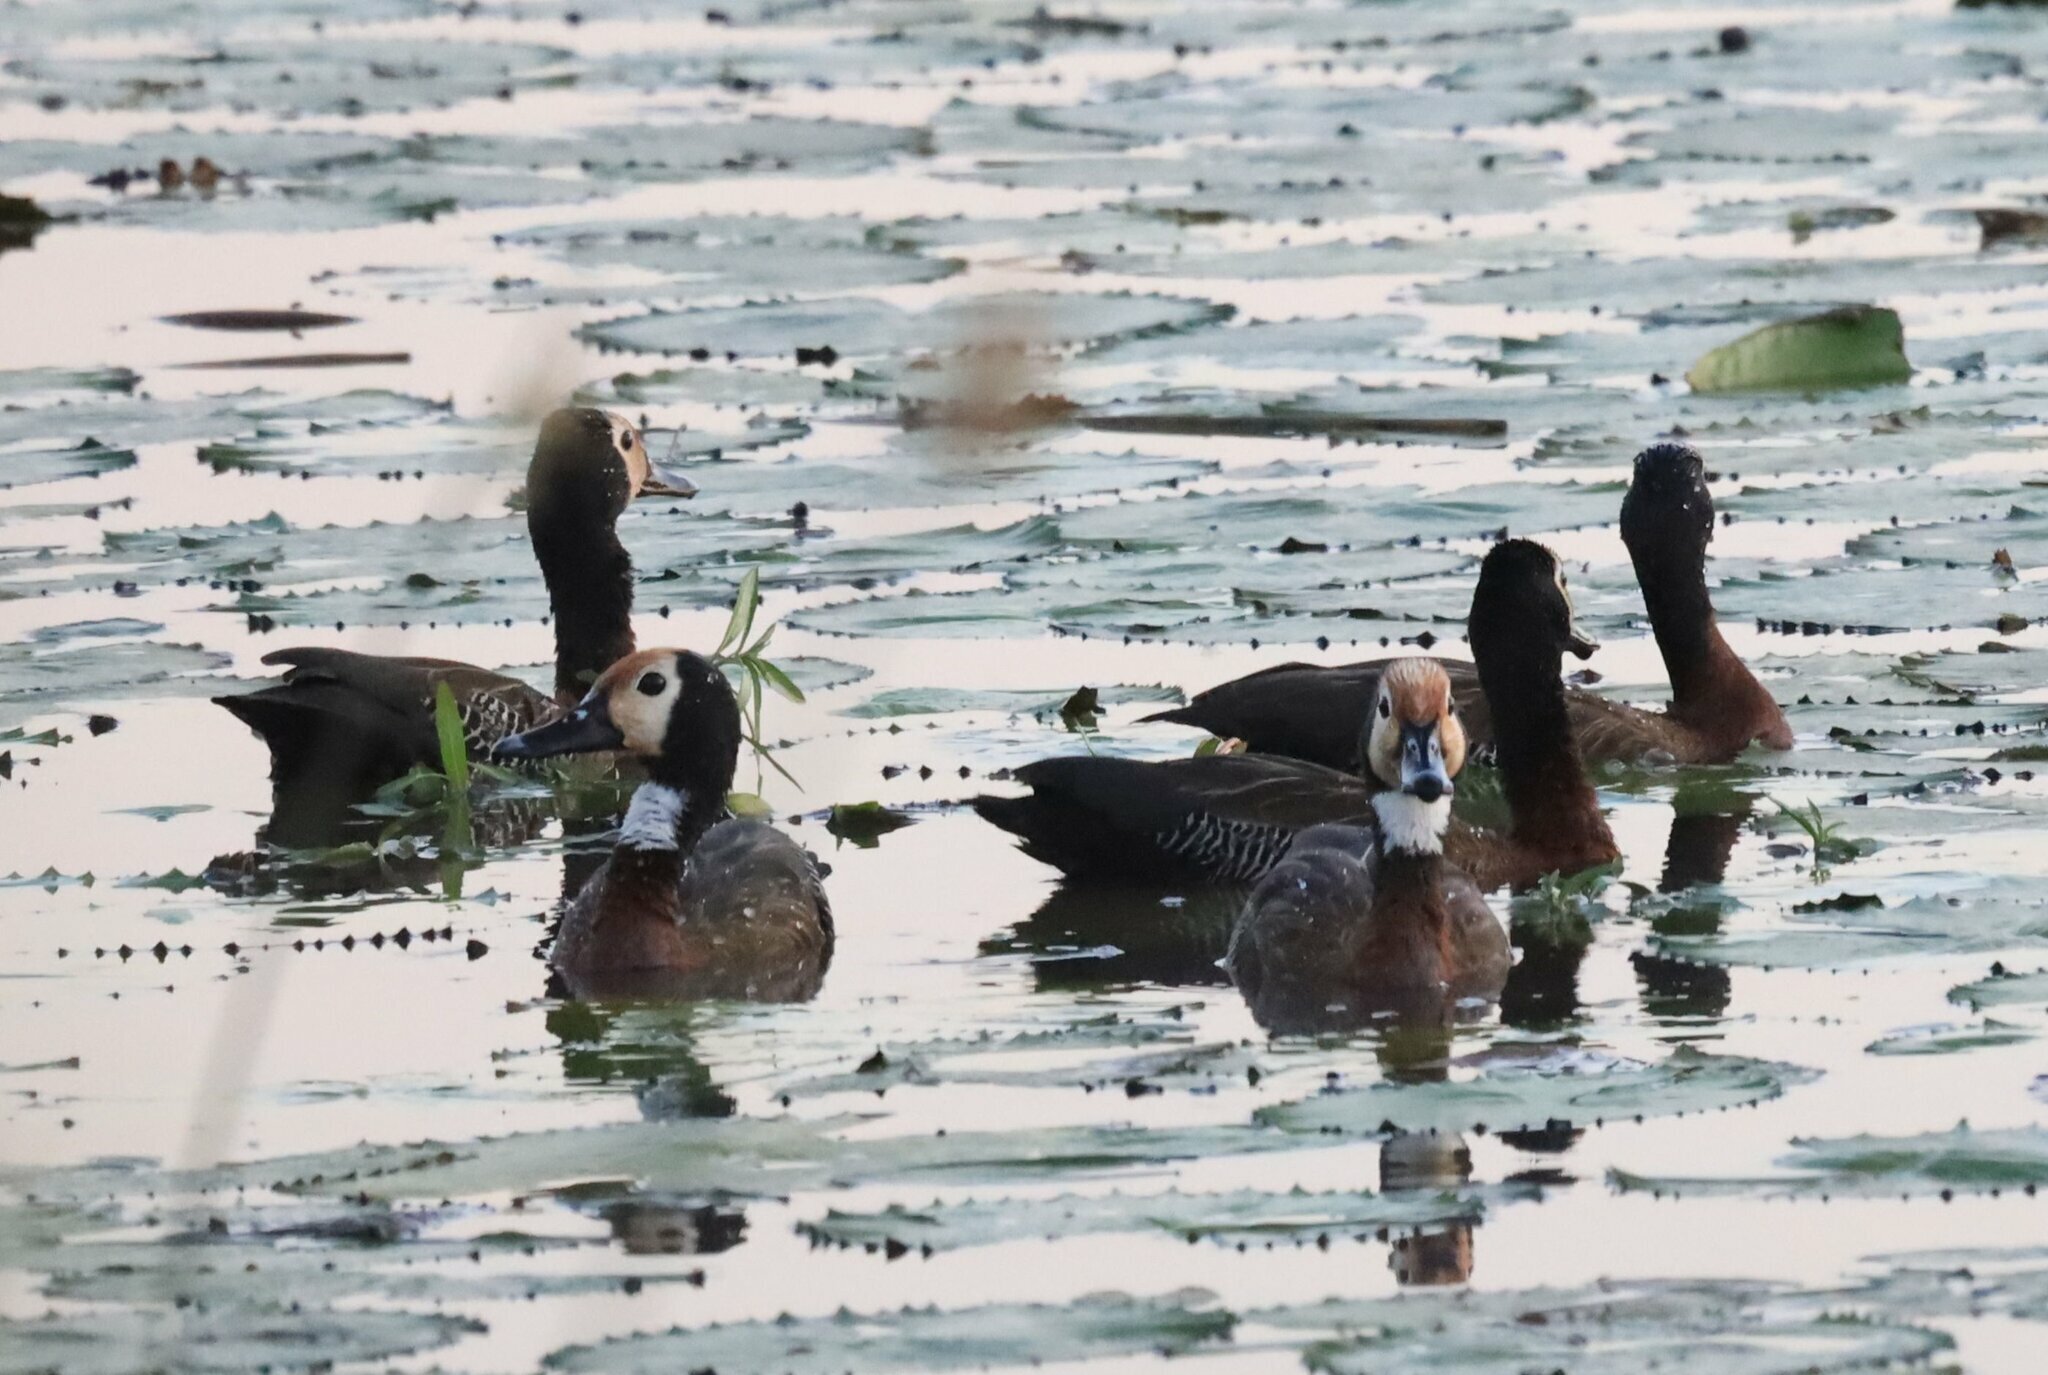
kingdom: Animalia
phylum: Chordata
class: Aves
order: Anseriformes
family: Anatidae
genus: Dendrocygna
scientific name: Dendrocygna viduata
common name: White-faced whistling duck
